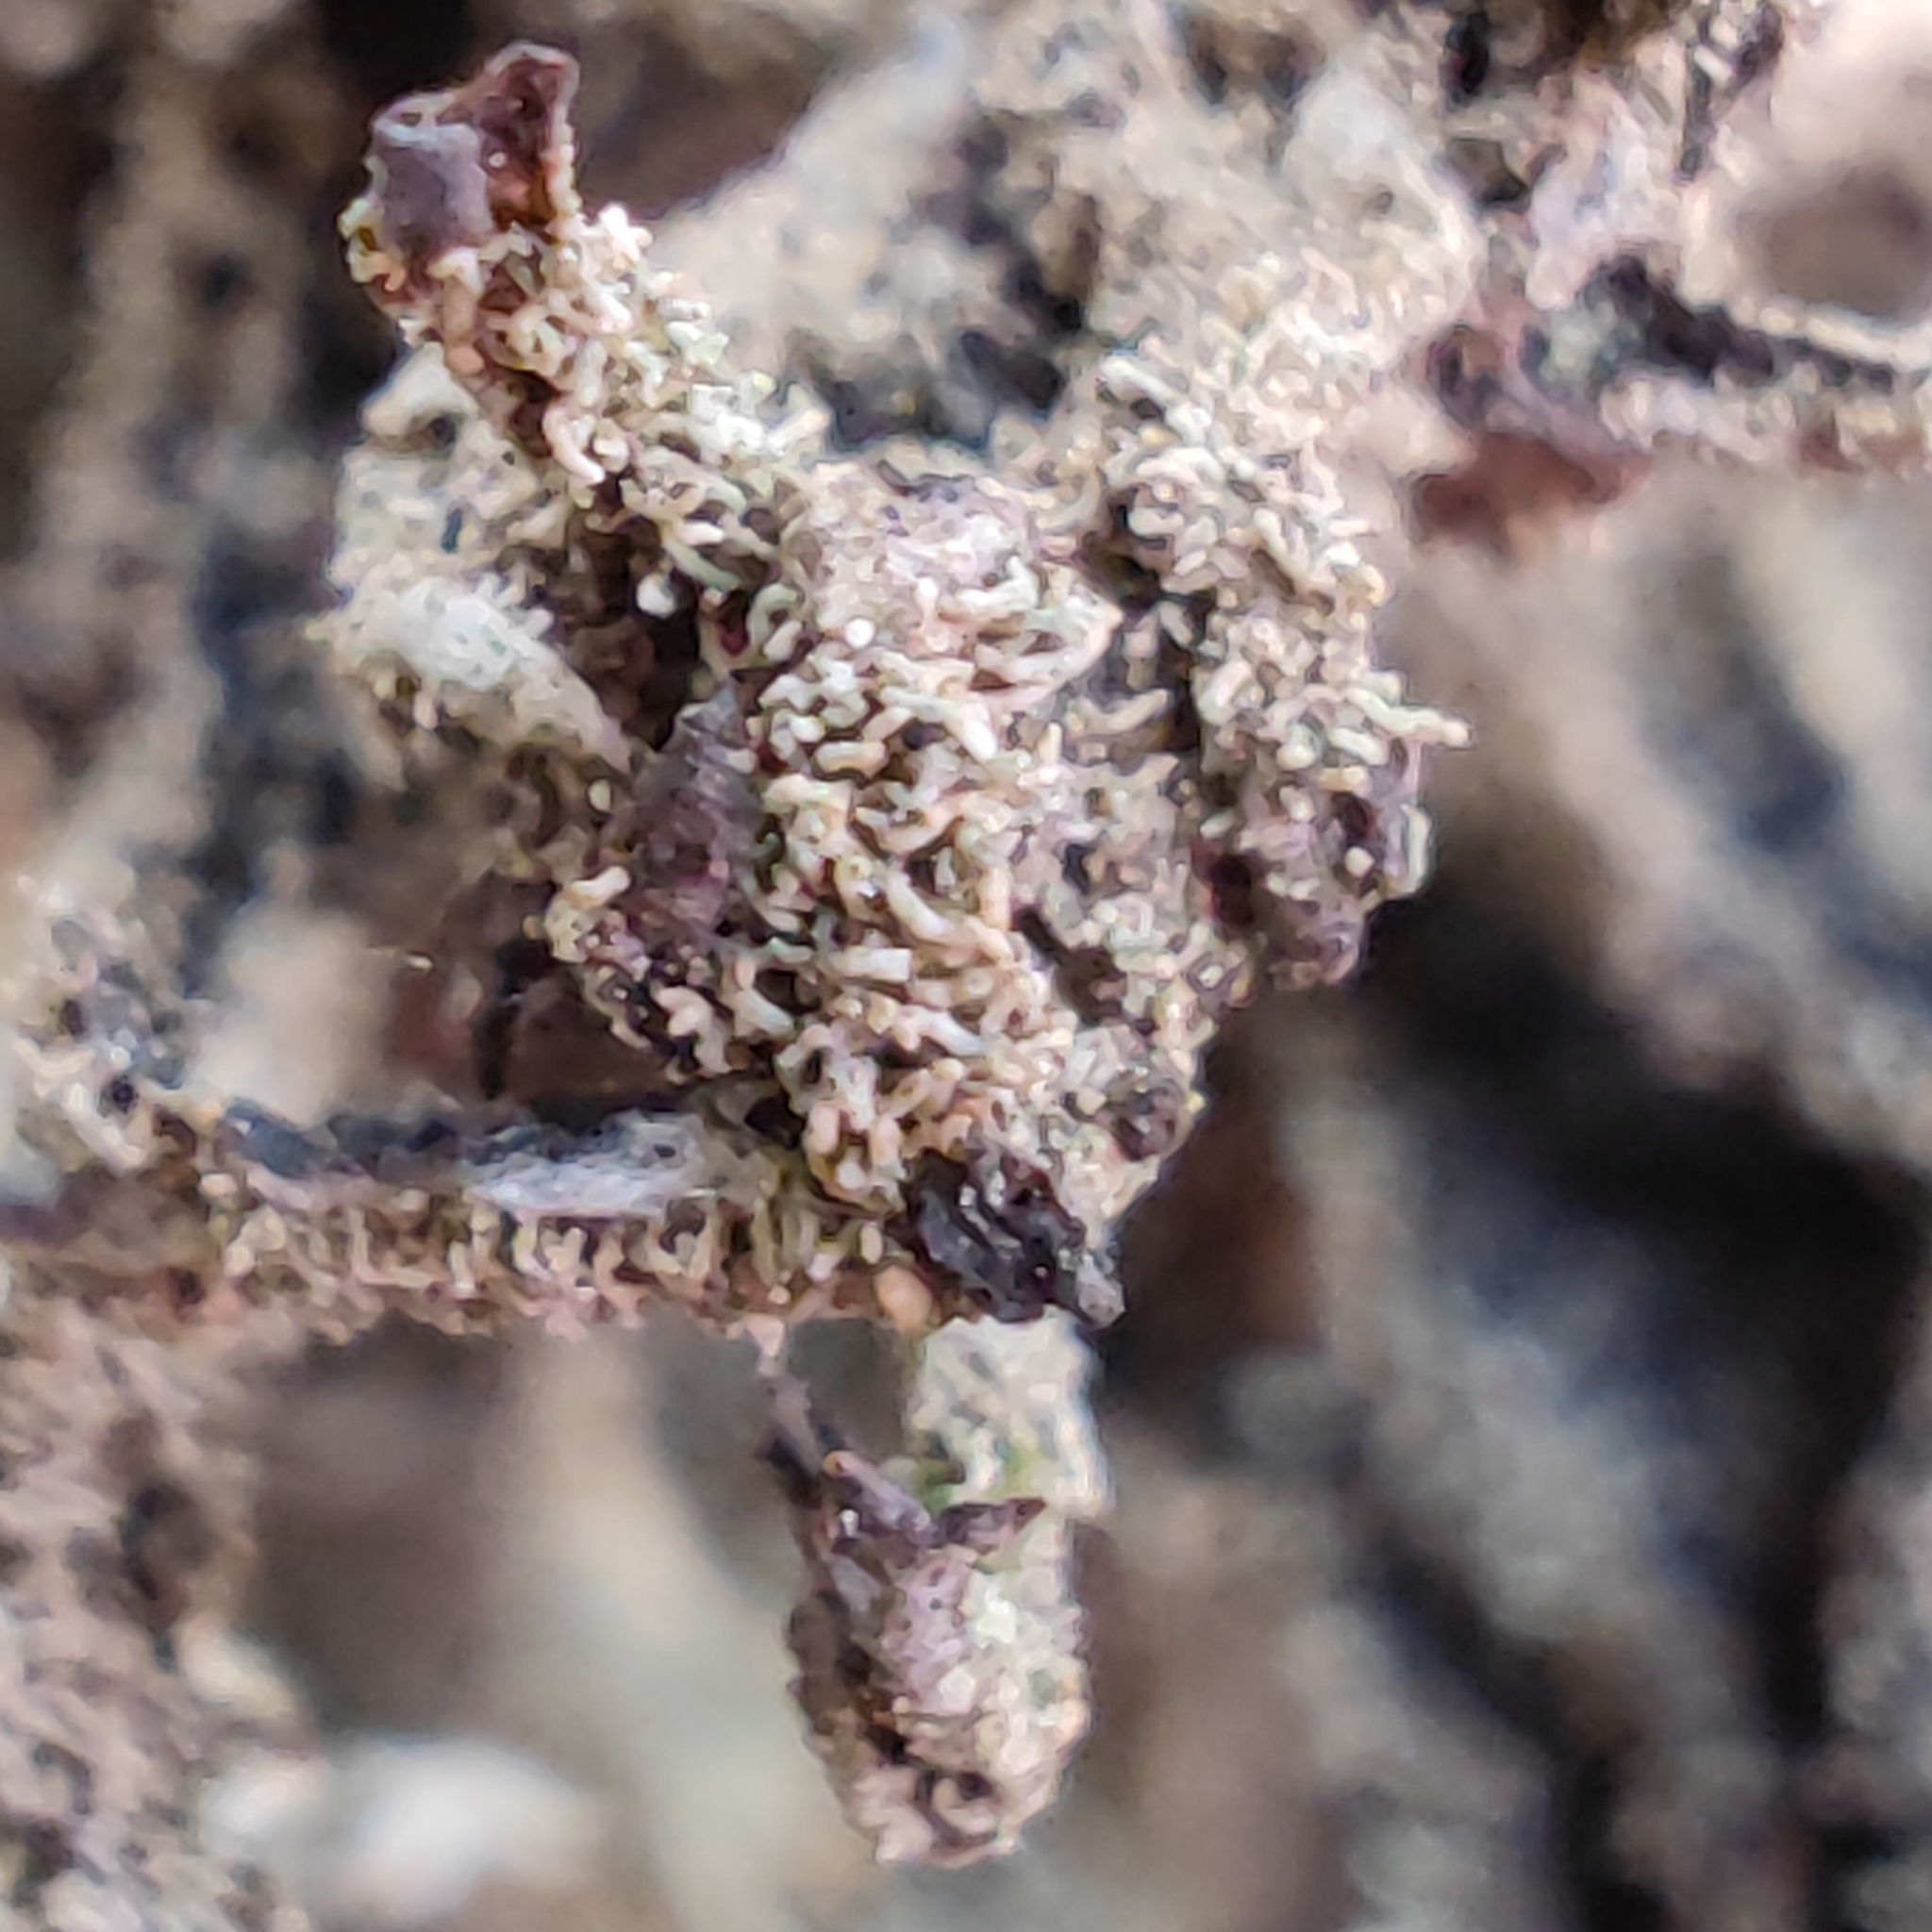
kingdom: Fungi
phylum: Ascomycota
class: Lecanoromycetes
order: Lecanorales
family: Parmeliaceae
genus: Pseudevernia
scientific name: Pseudevernia furfuracea
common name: Tree moss
